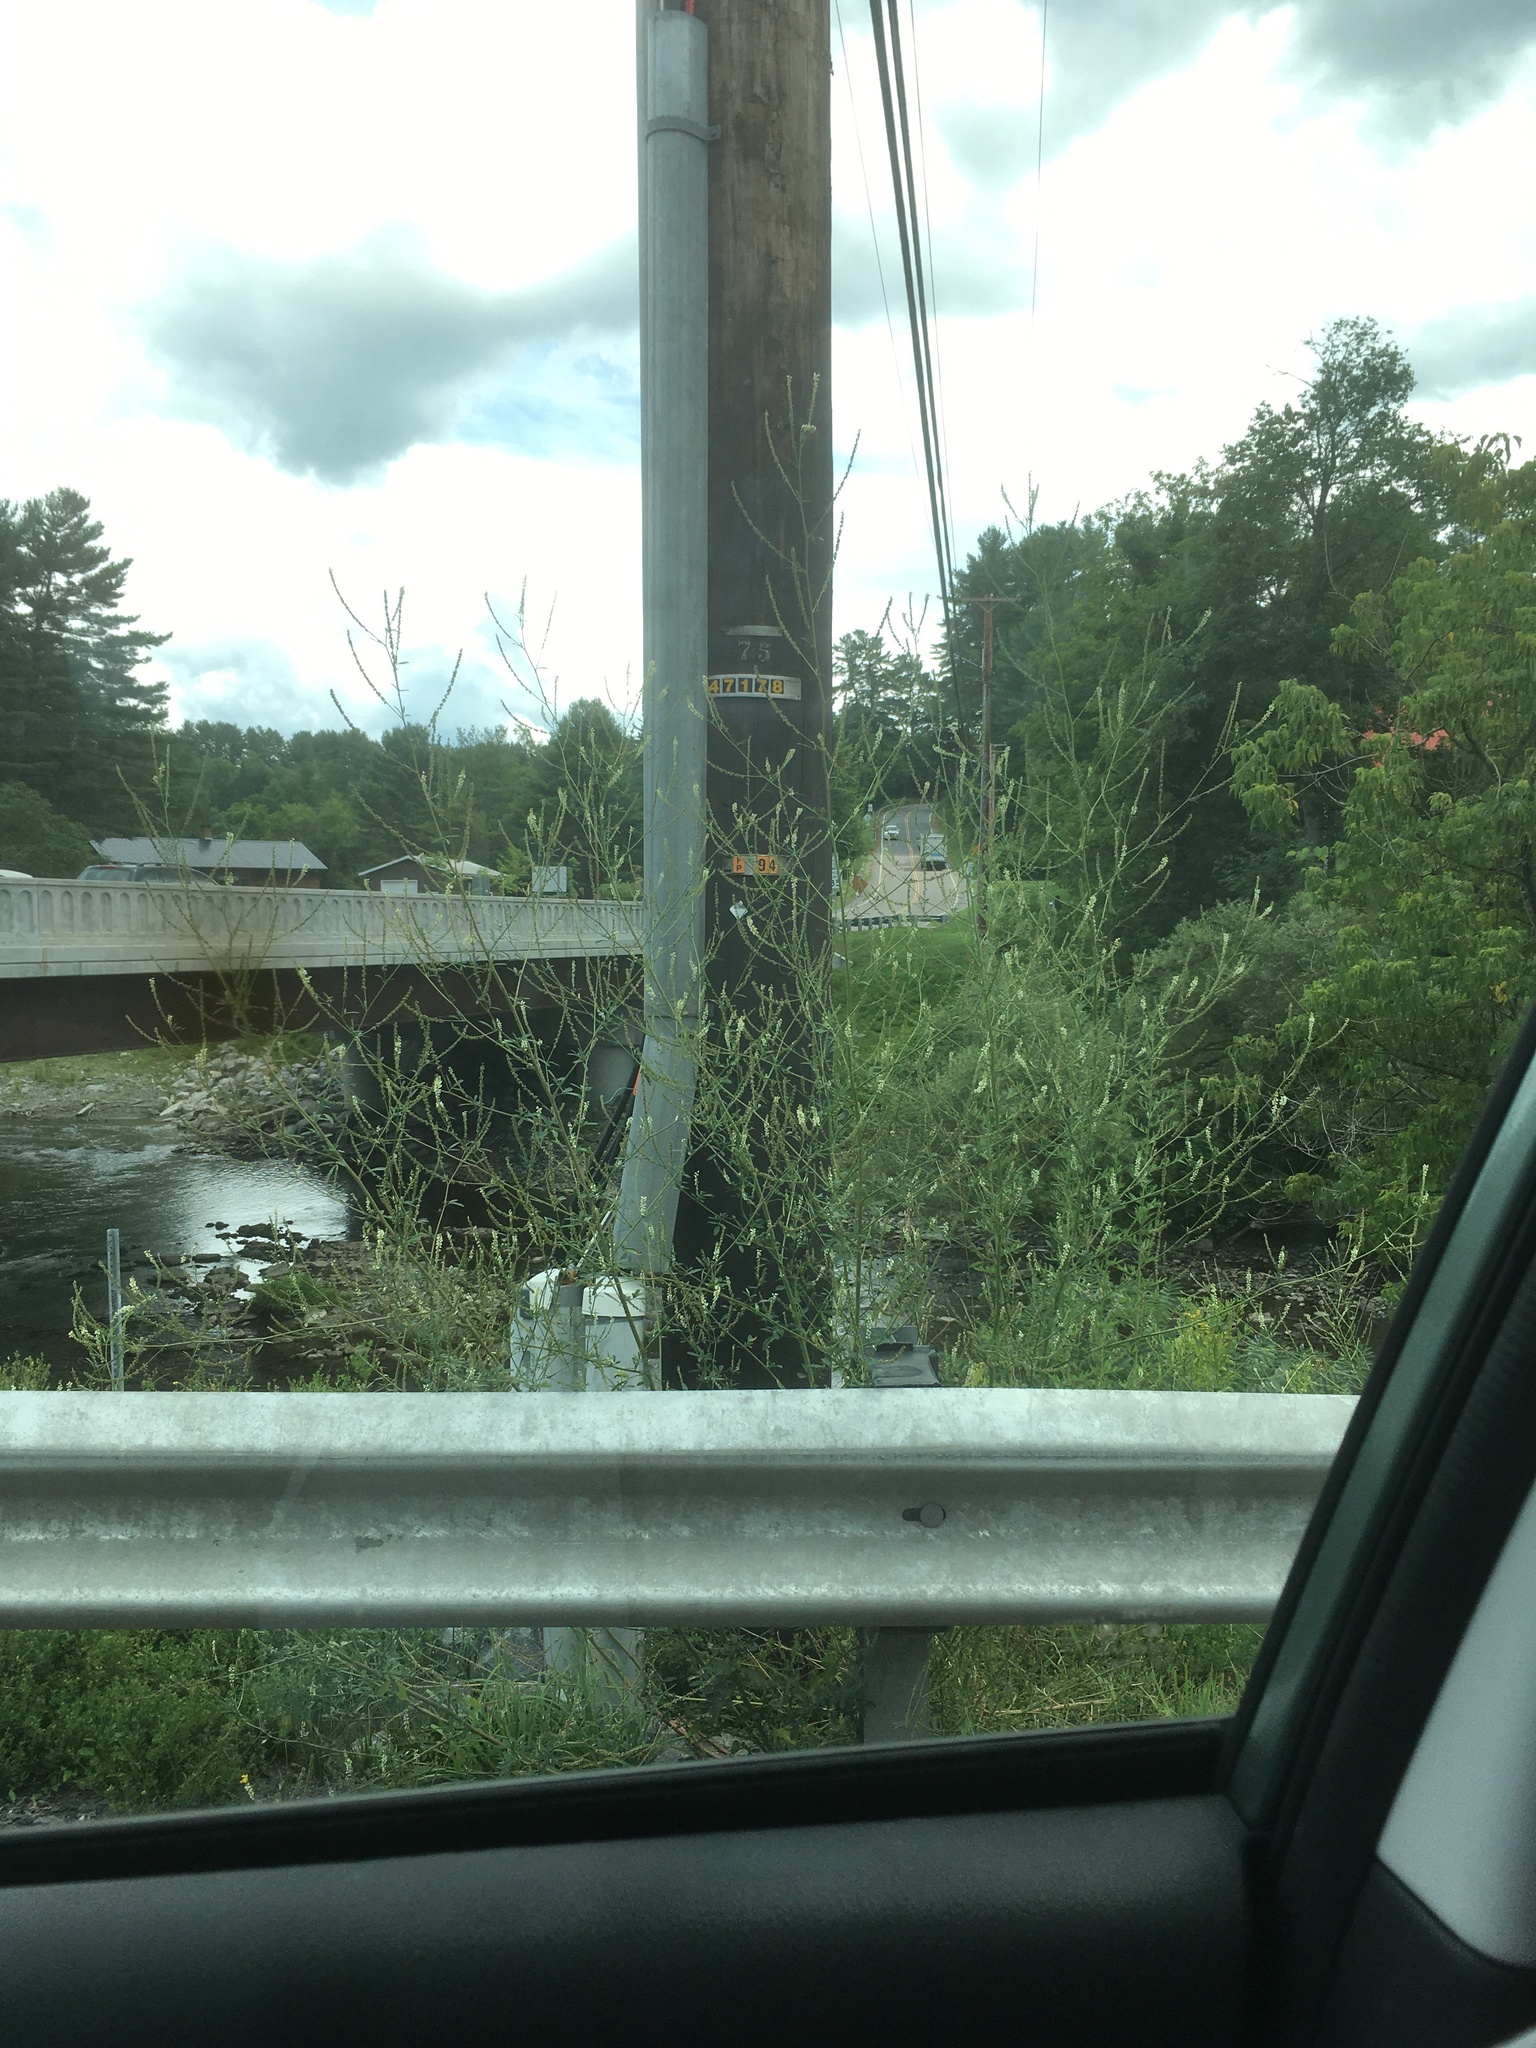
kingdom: Plantae
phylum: Tracheophyta
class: Magnoliopsida
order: Fabales
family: Fabaceae
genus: Melilotus
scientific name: Melilotus albus
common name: White melilot
